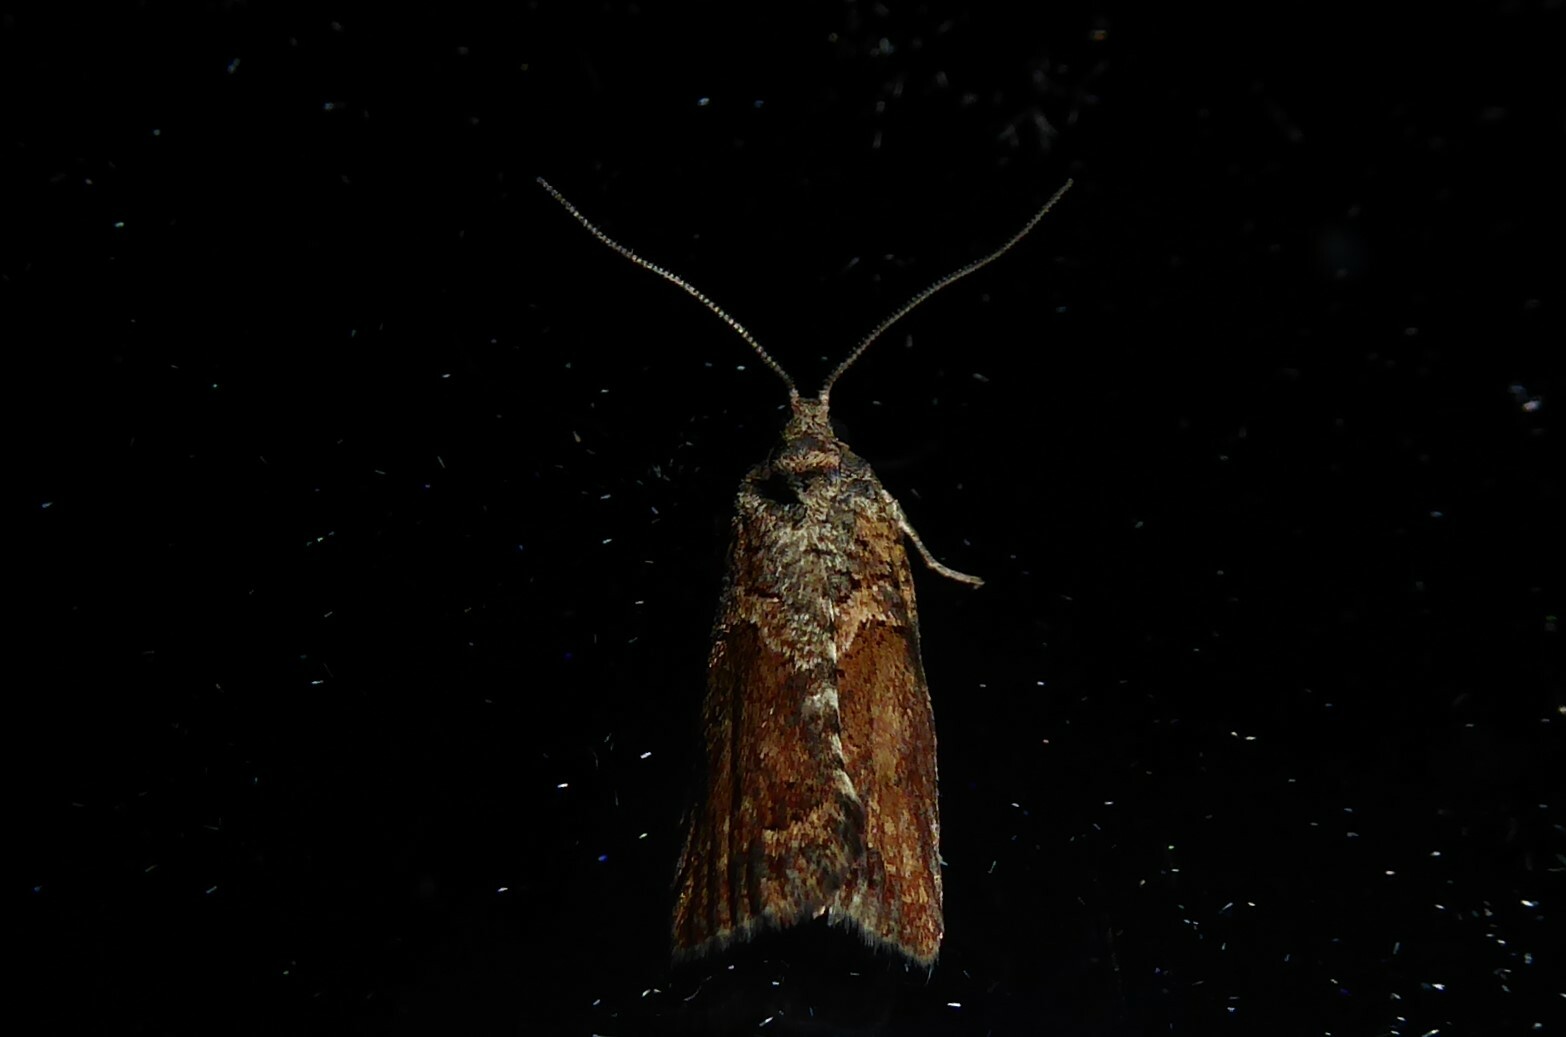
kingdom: Animalia
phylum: Arthropoda
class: Insecta
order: Lepidoptera
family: Tortricidae
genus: Harmologa
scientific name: Harmologa scoliastis
